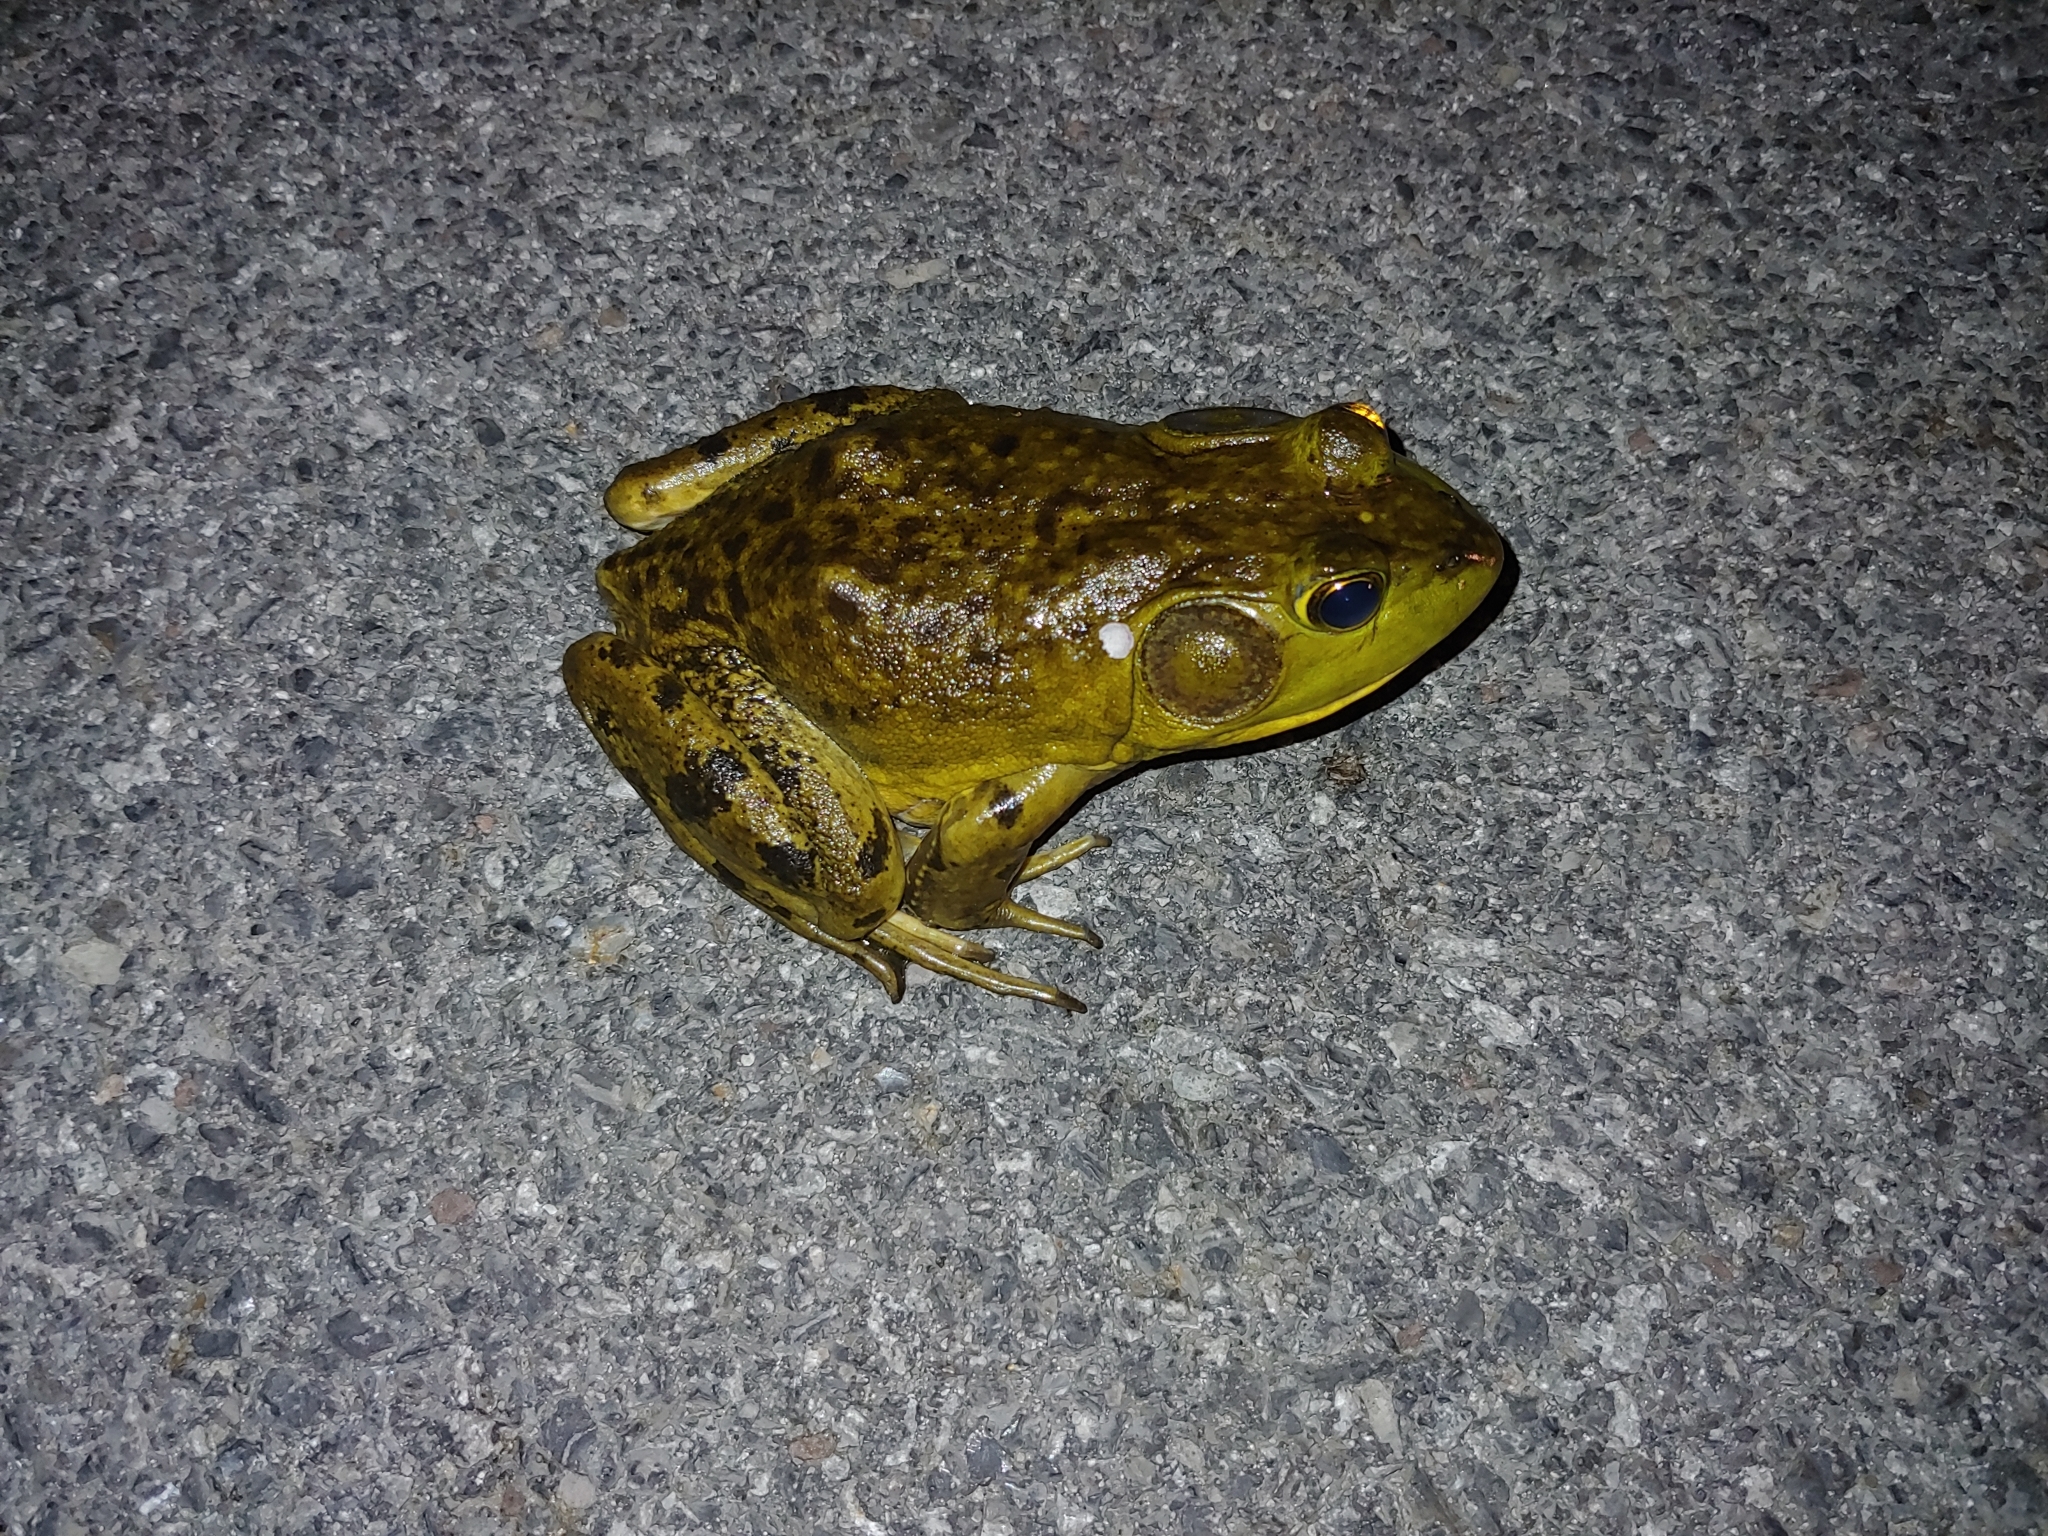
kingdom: Animalia
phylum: Chordata
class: Amphibia
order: Anura
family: Ranidae
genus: Lithobates
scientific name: Lithobates catesbeianus
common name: American bullfrog
